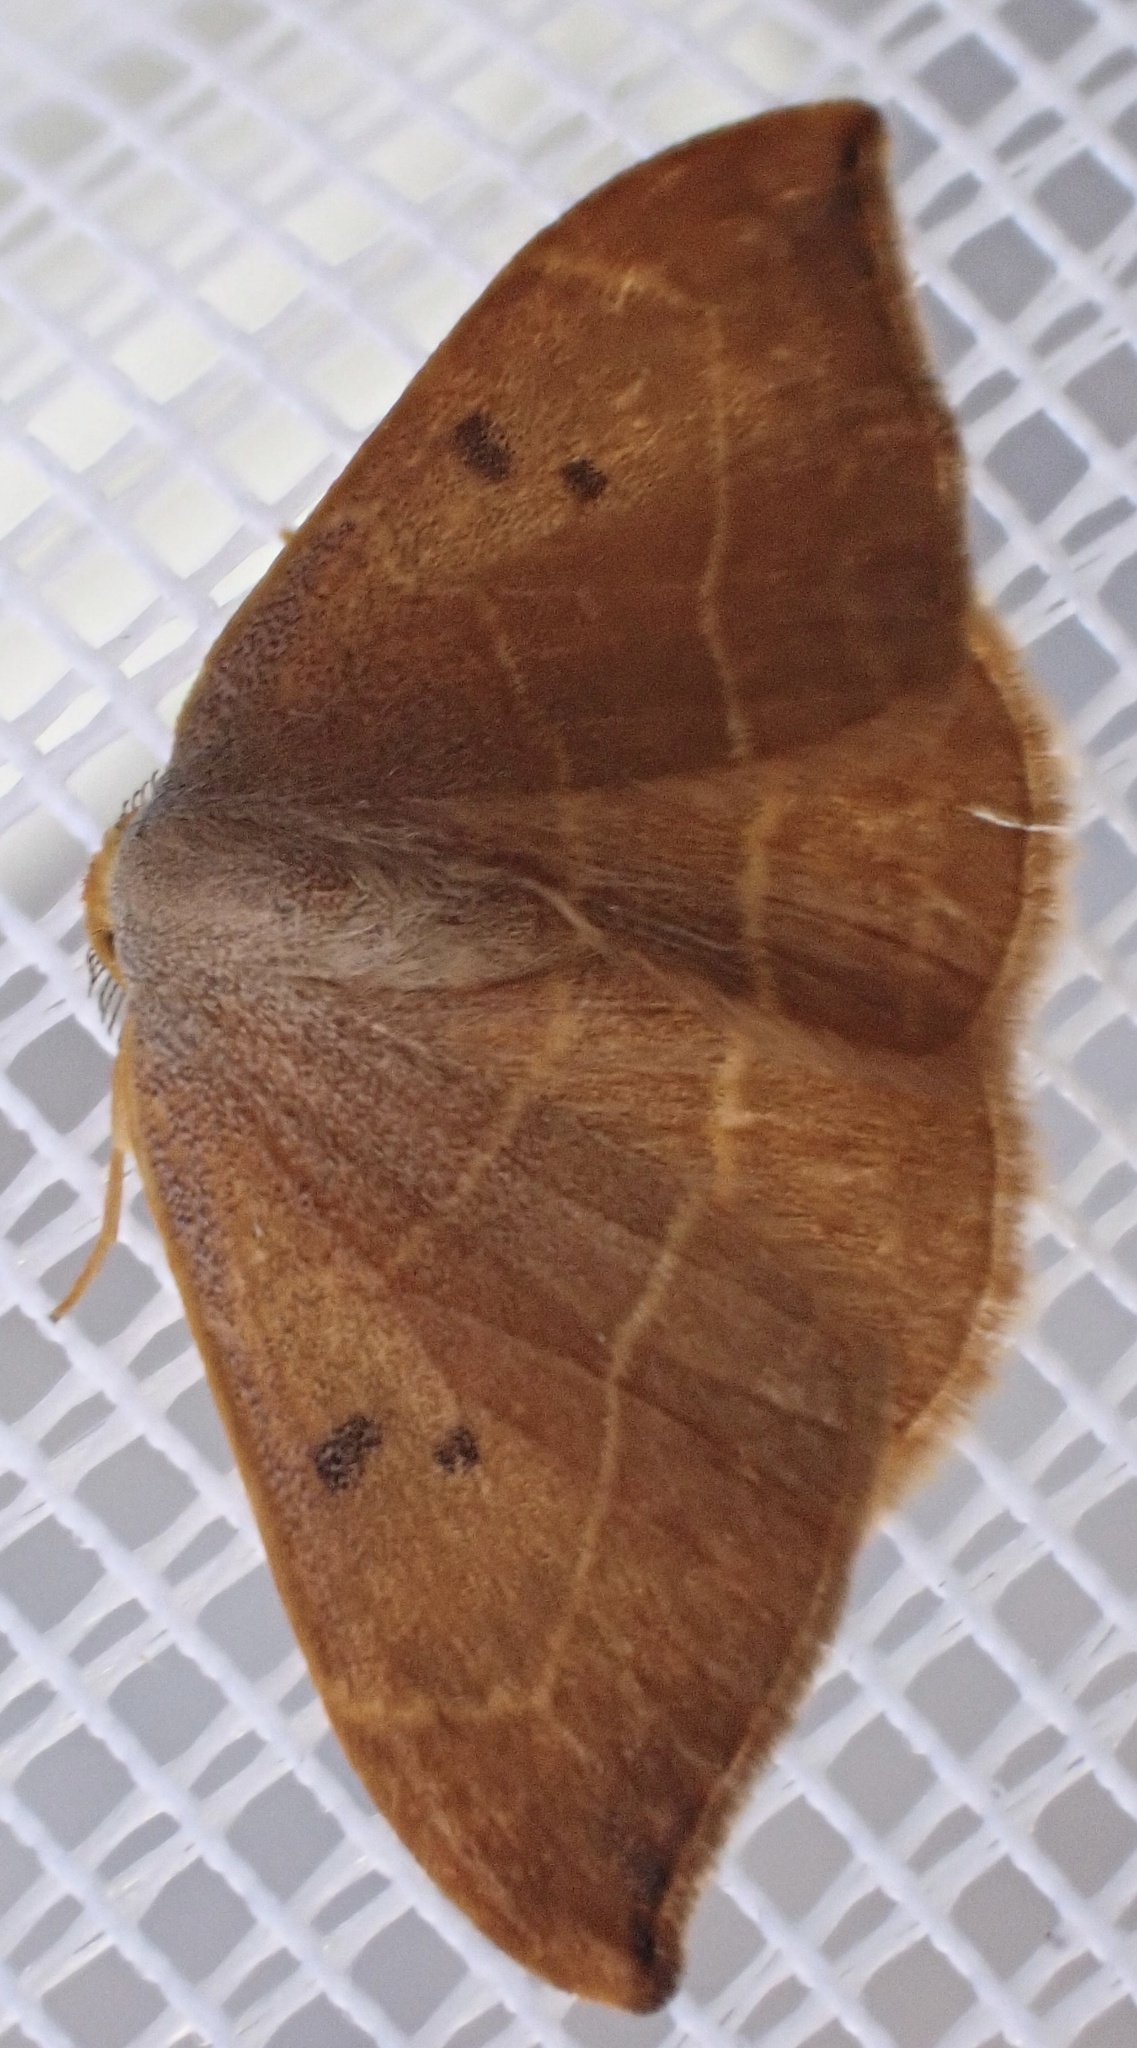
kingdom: Animalia
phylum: Arthropoda
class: Insecta
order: Lepidoptera
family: Drepanidae
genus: Watsonalla
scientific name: Watsonalla binaria
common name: Oak hook-tip
